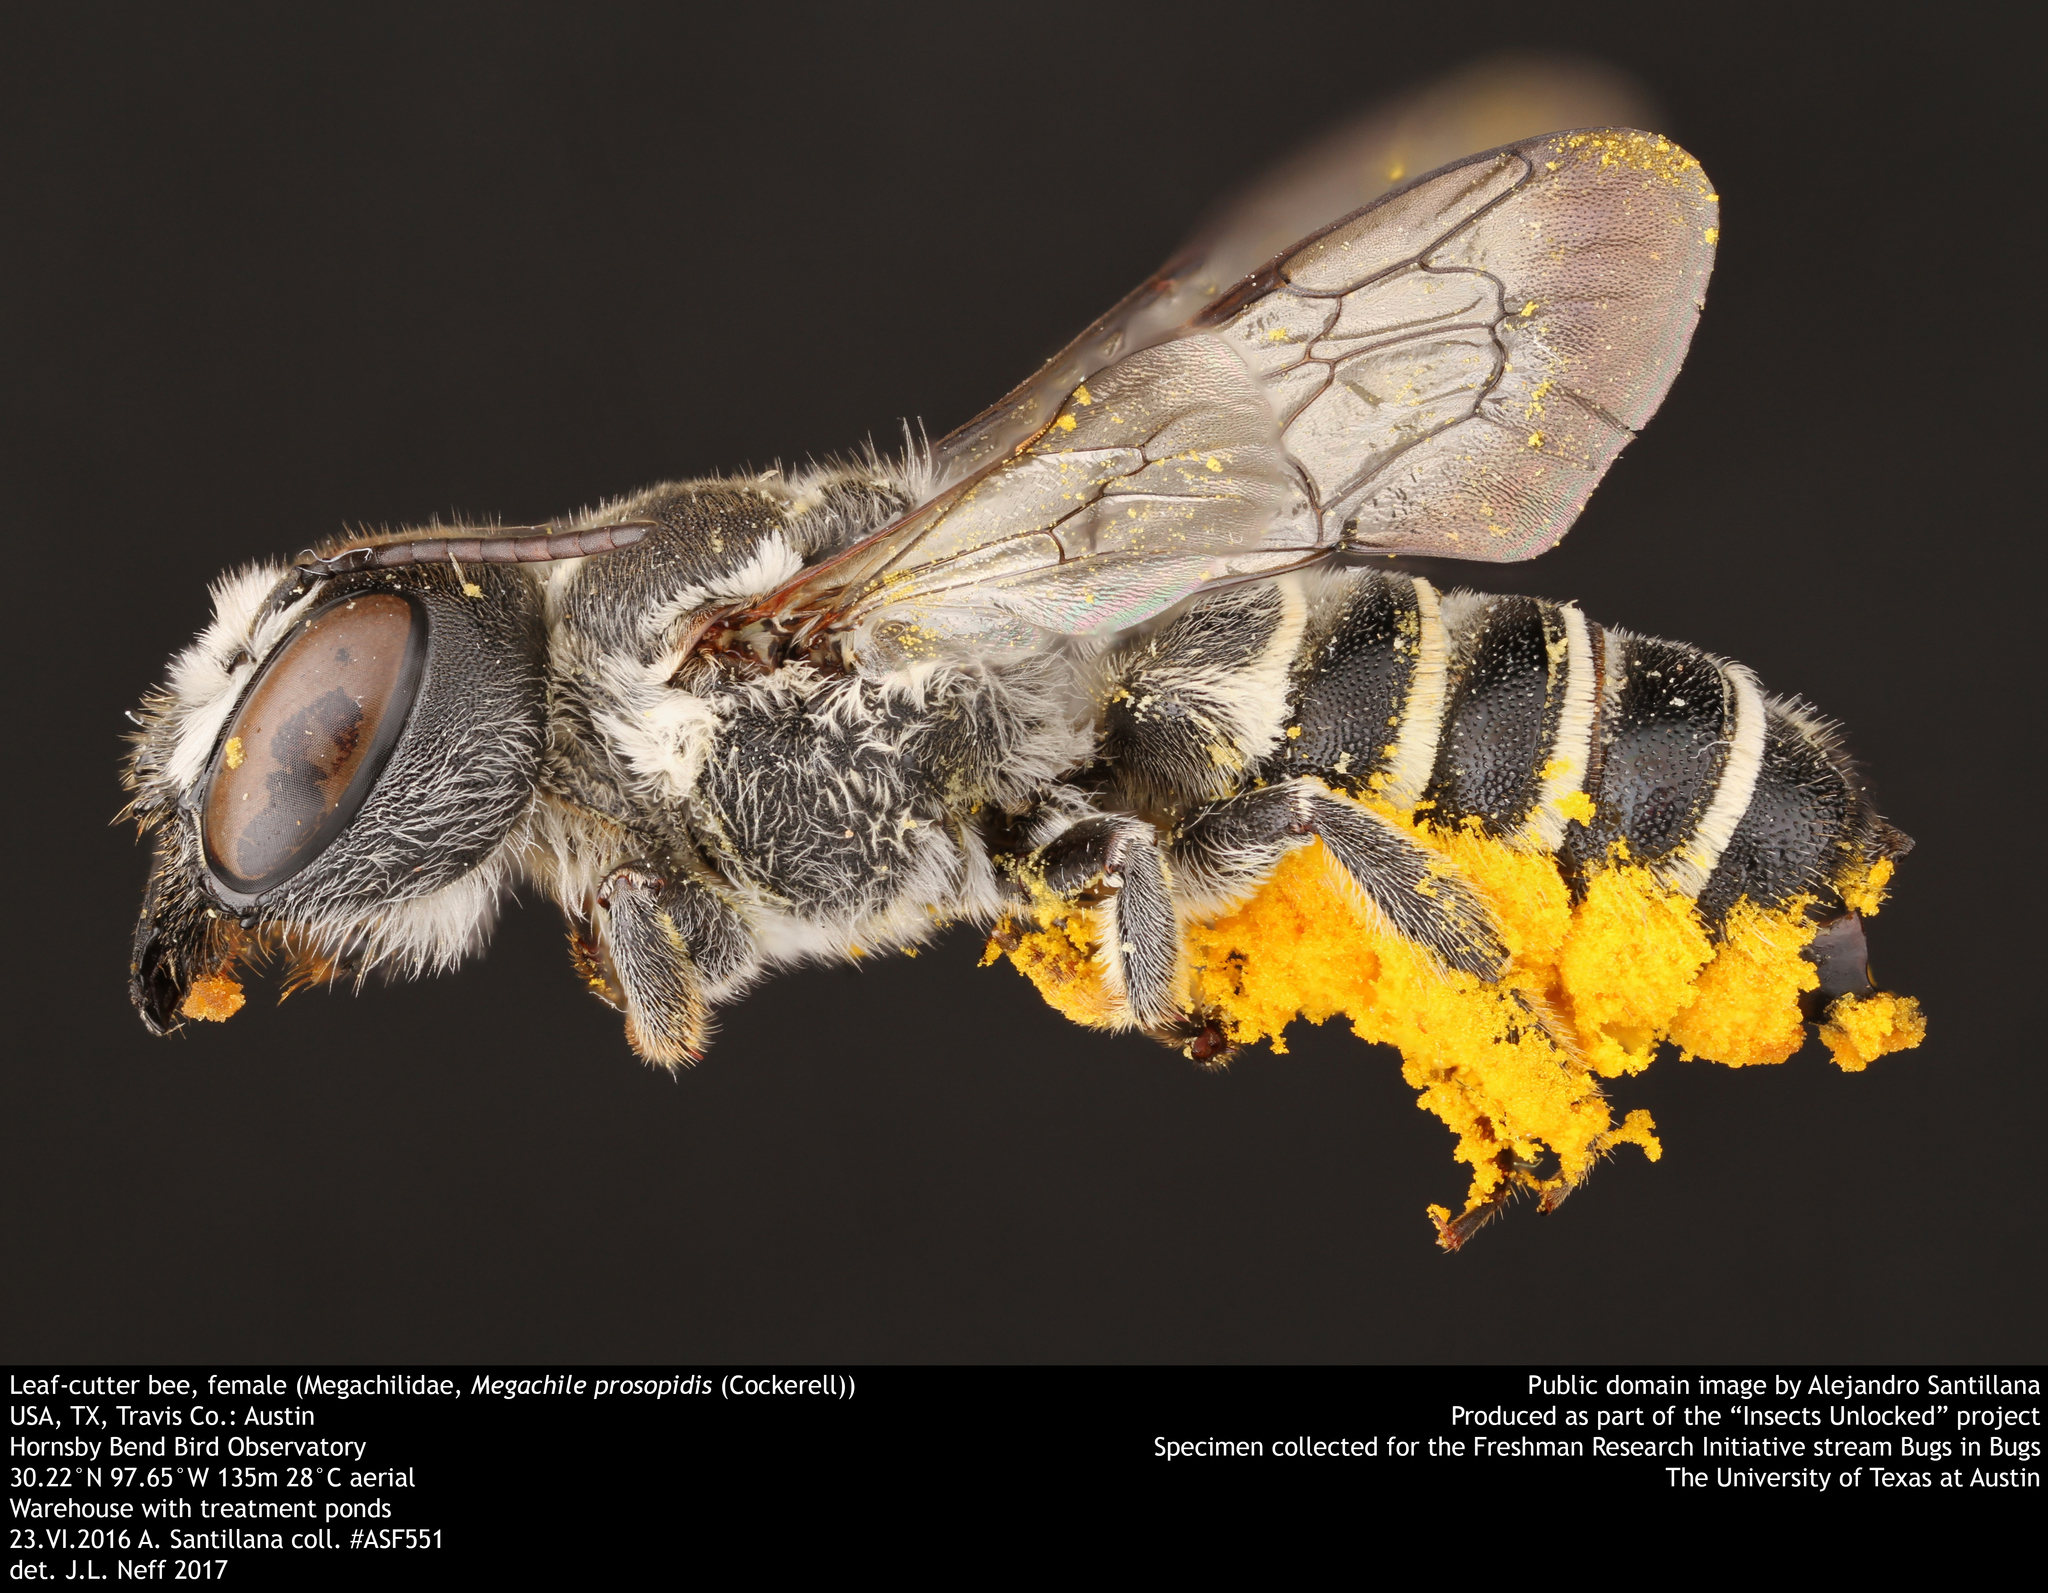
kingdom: Animalia
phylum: Arthropoda
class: Insecta
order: Hymenoptera
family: Megachilidae
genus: Megachile
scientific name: Megachile prosopidis
